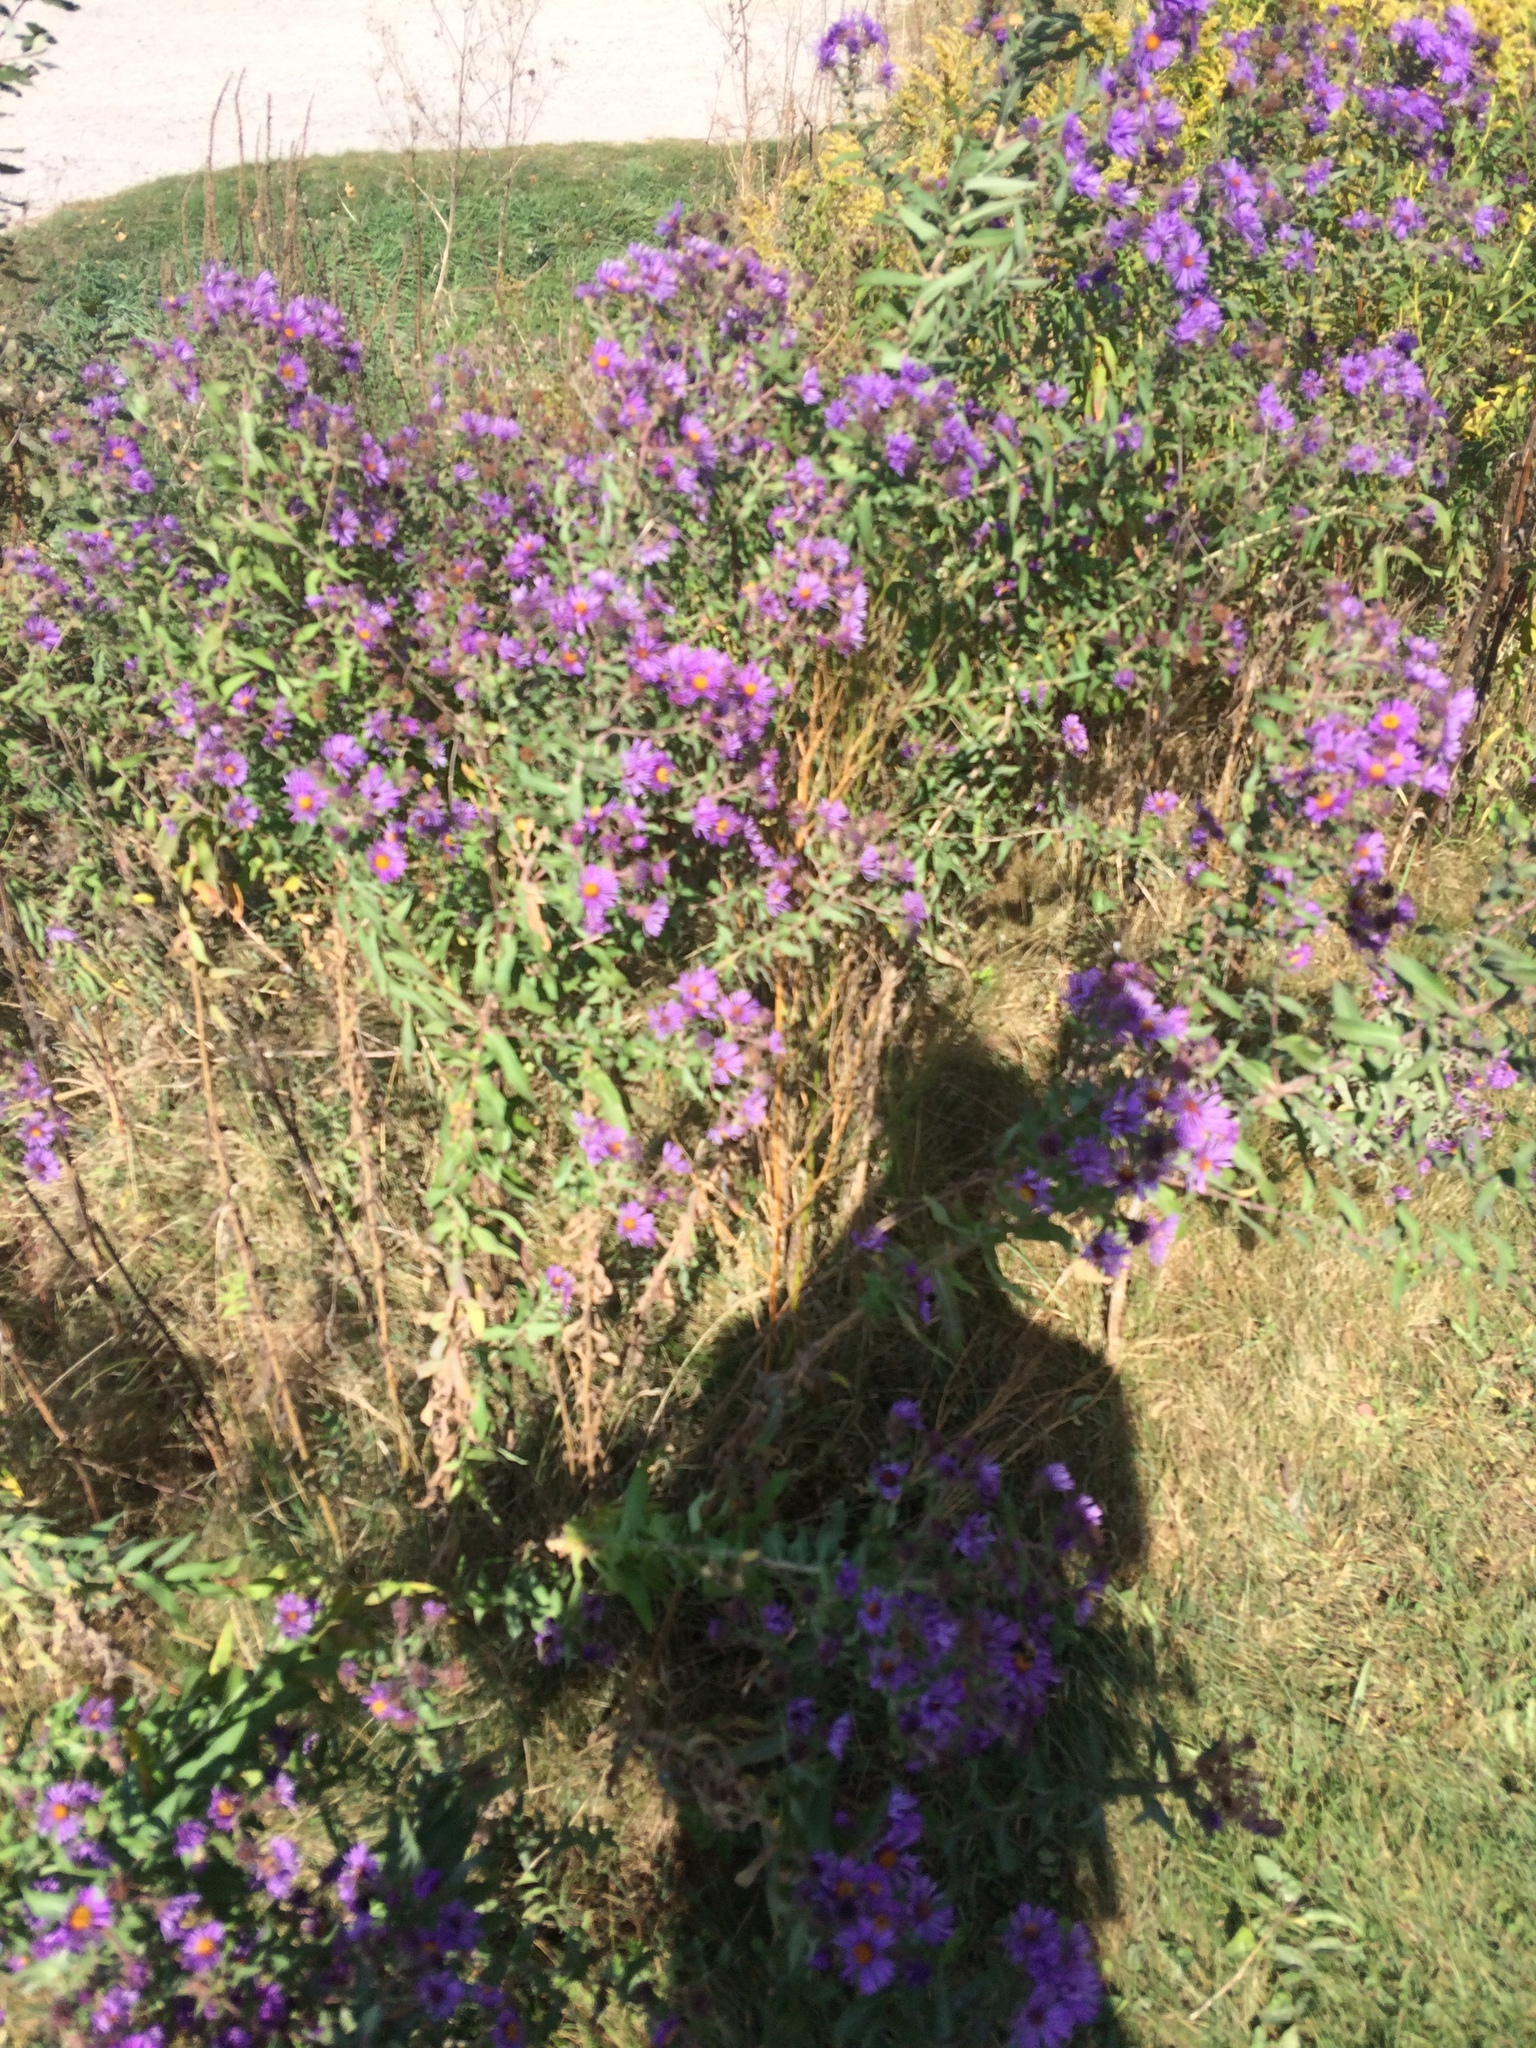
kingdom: Plantae
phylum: Tracheophyta
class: Magnoliopsida
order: Asterales
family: Asteraceae
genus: Symphyotrichum
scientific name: Symphyotrichum novae-angliae
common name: Michaelmas daisy
